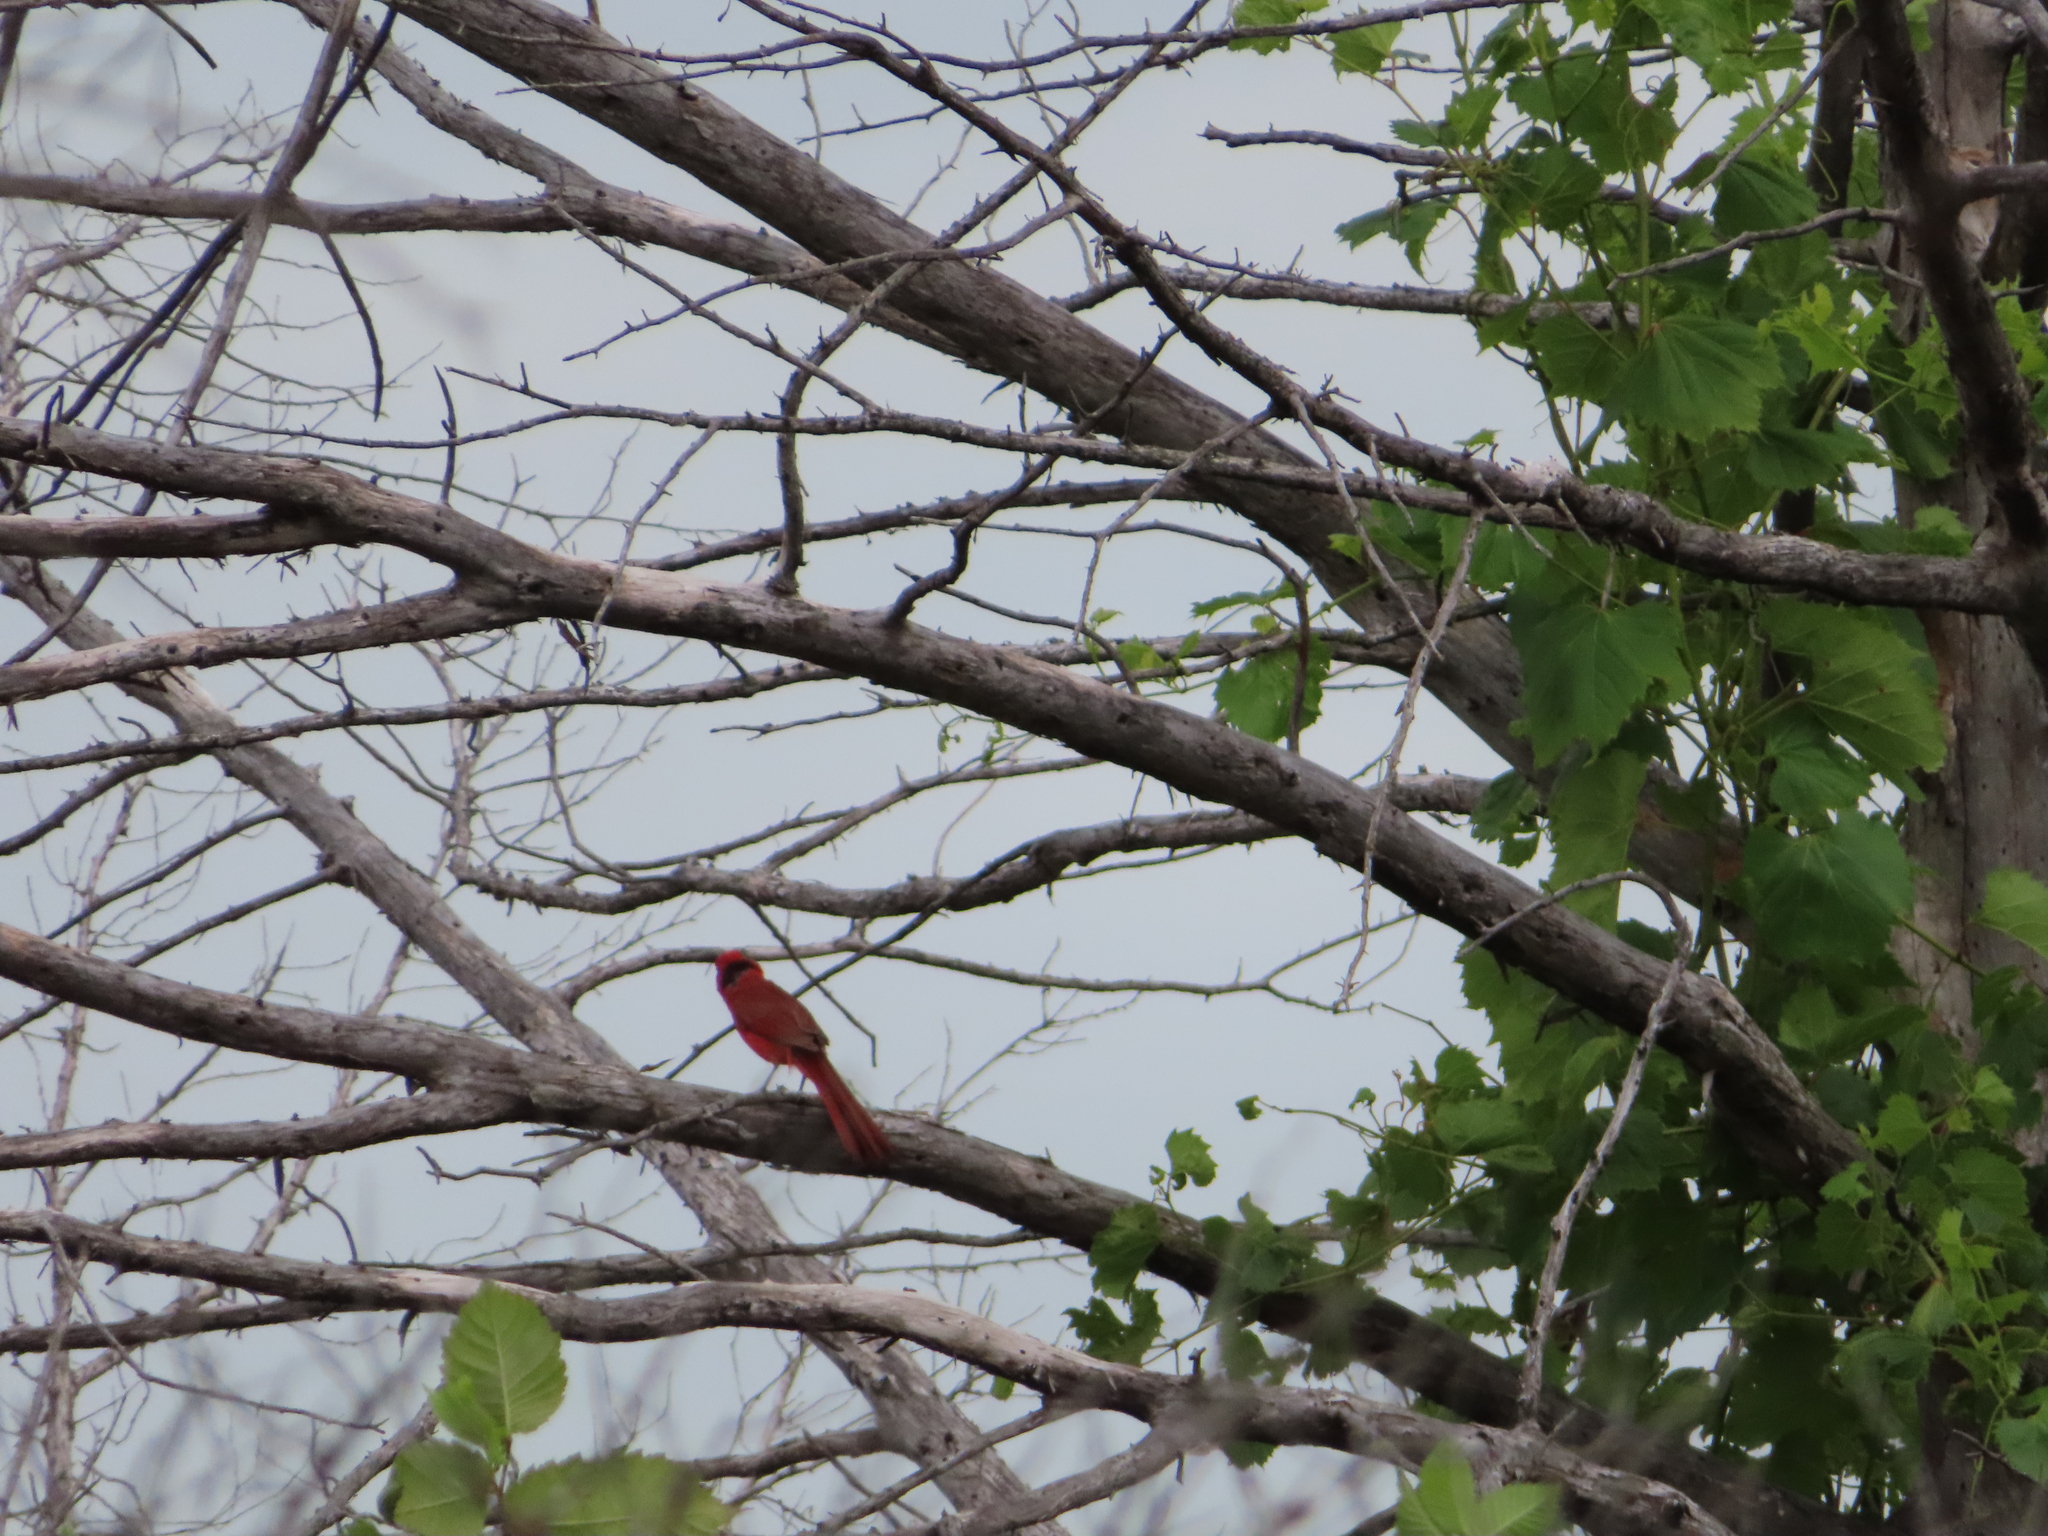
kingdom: Animalia
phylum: Chordata
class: Aves
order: Passeriformes
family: Cardinalidae
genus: Cardinalis
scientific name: Cardinalis cardinalis
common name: Northern cardinal
